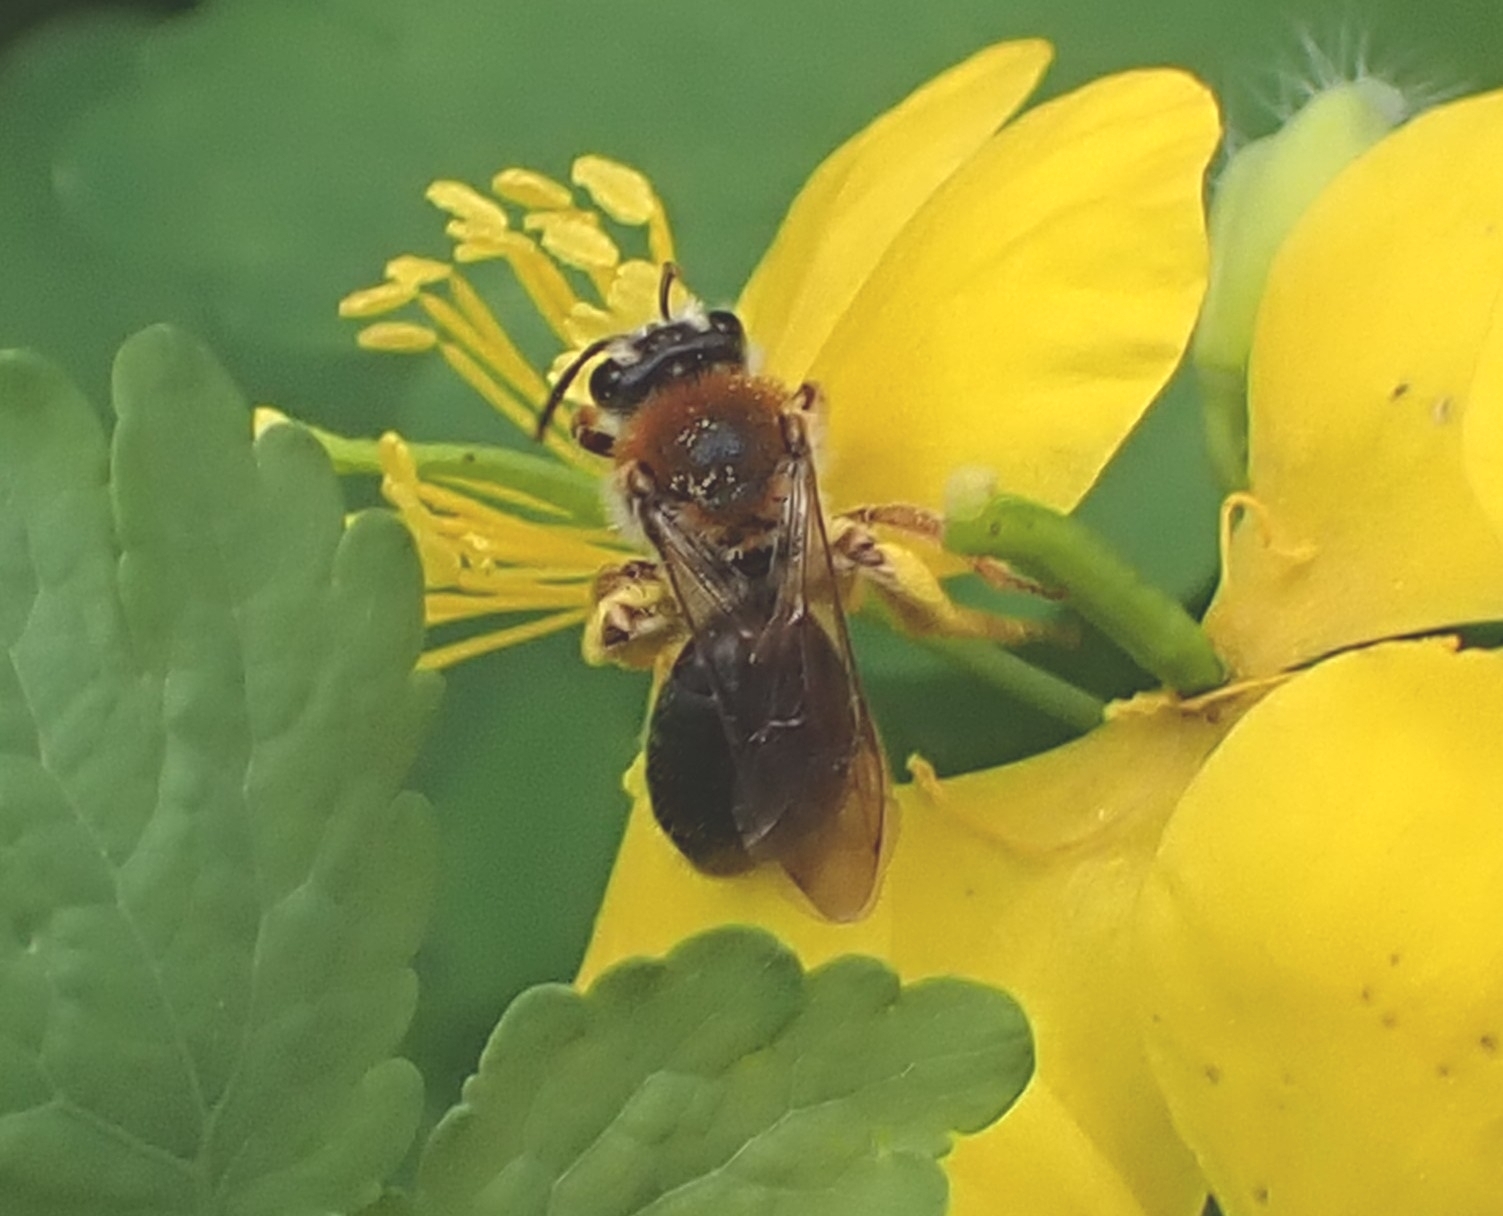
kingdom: Animalia
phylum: Arthropoda
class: Insecta
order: Hymenoptera
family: Andrenidae
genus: Andrena
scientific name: Andrena haemorrhoa
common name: Early mining bee
